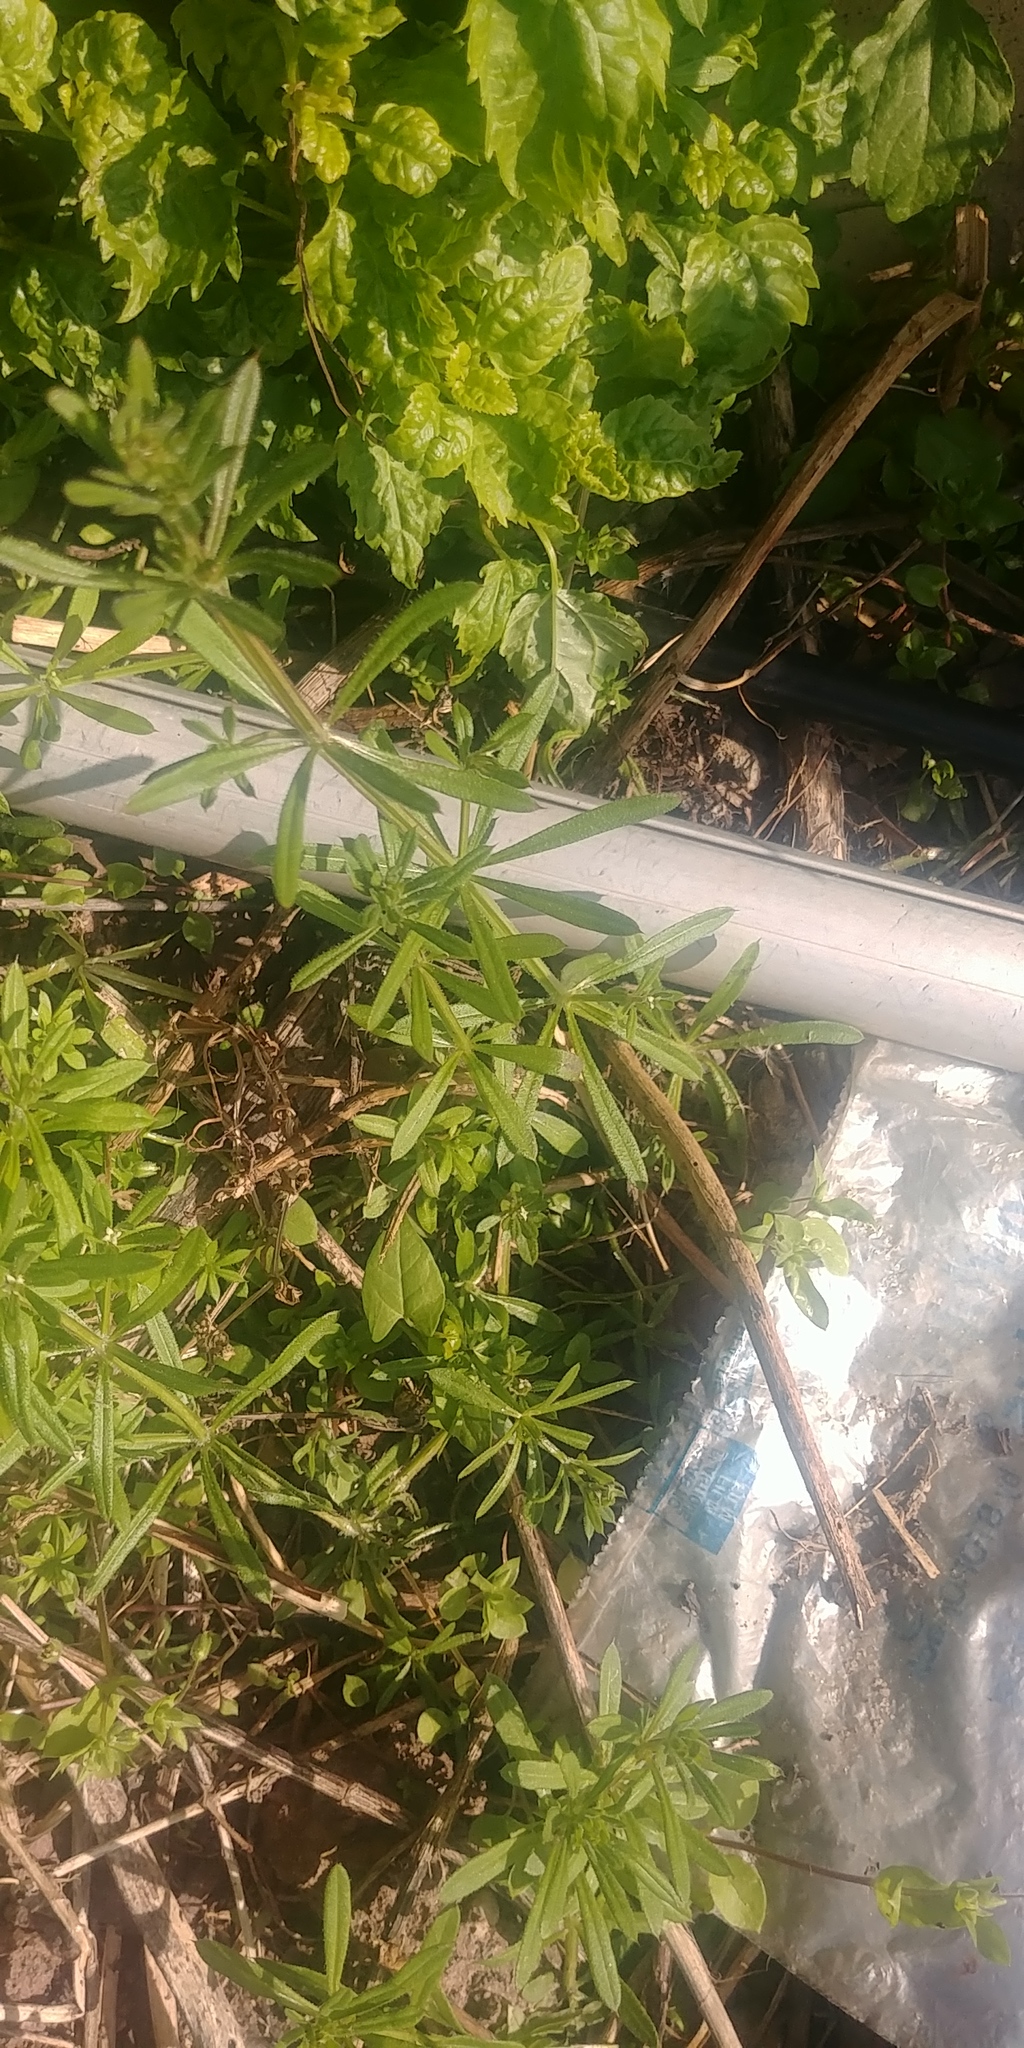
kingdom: Plantae
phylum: Tracheophyta
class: Magnoliopsida
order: Gentianales
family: Rubiaceae
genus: Galium
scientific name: Galium aparine
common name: Cleavers
